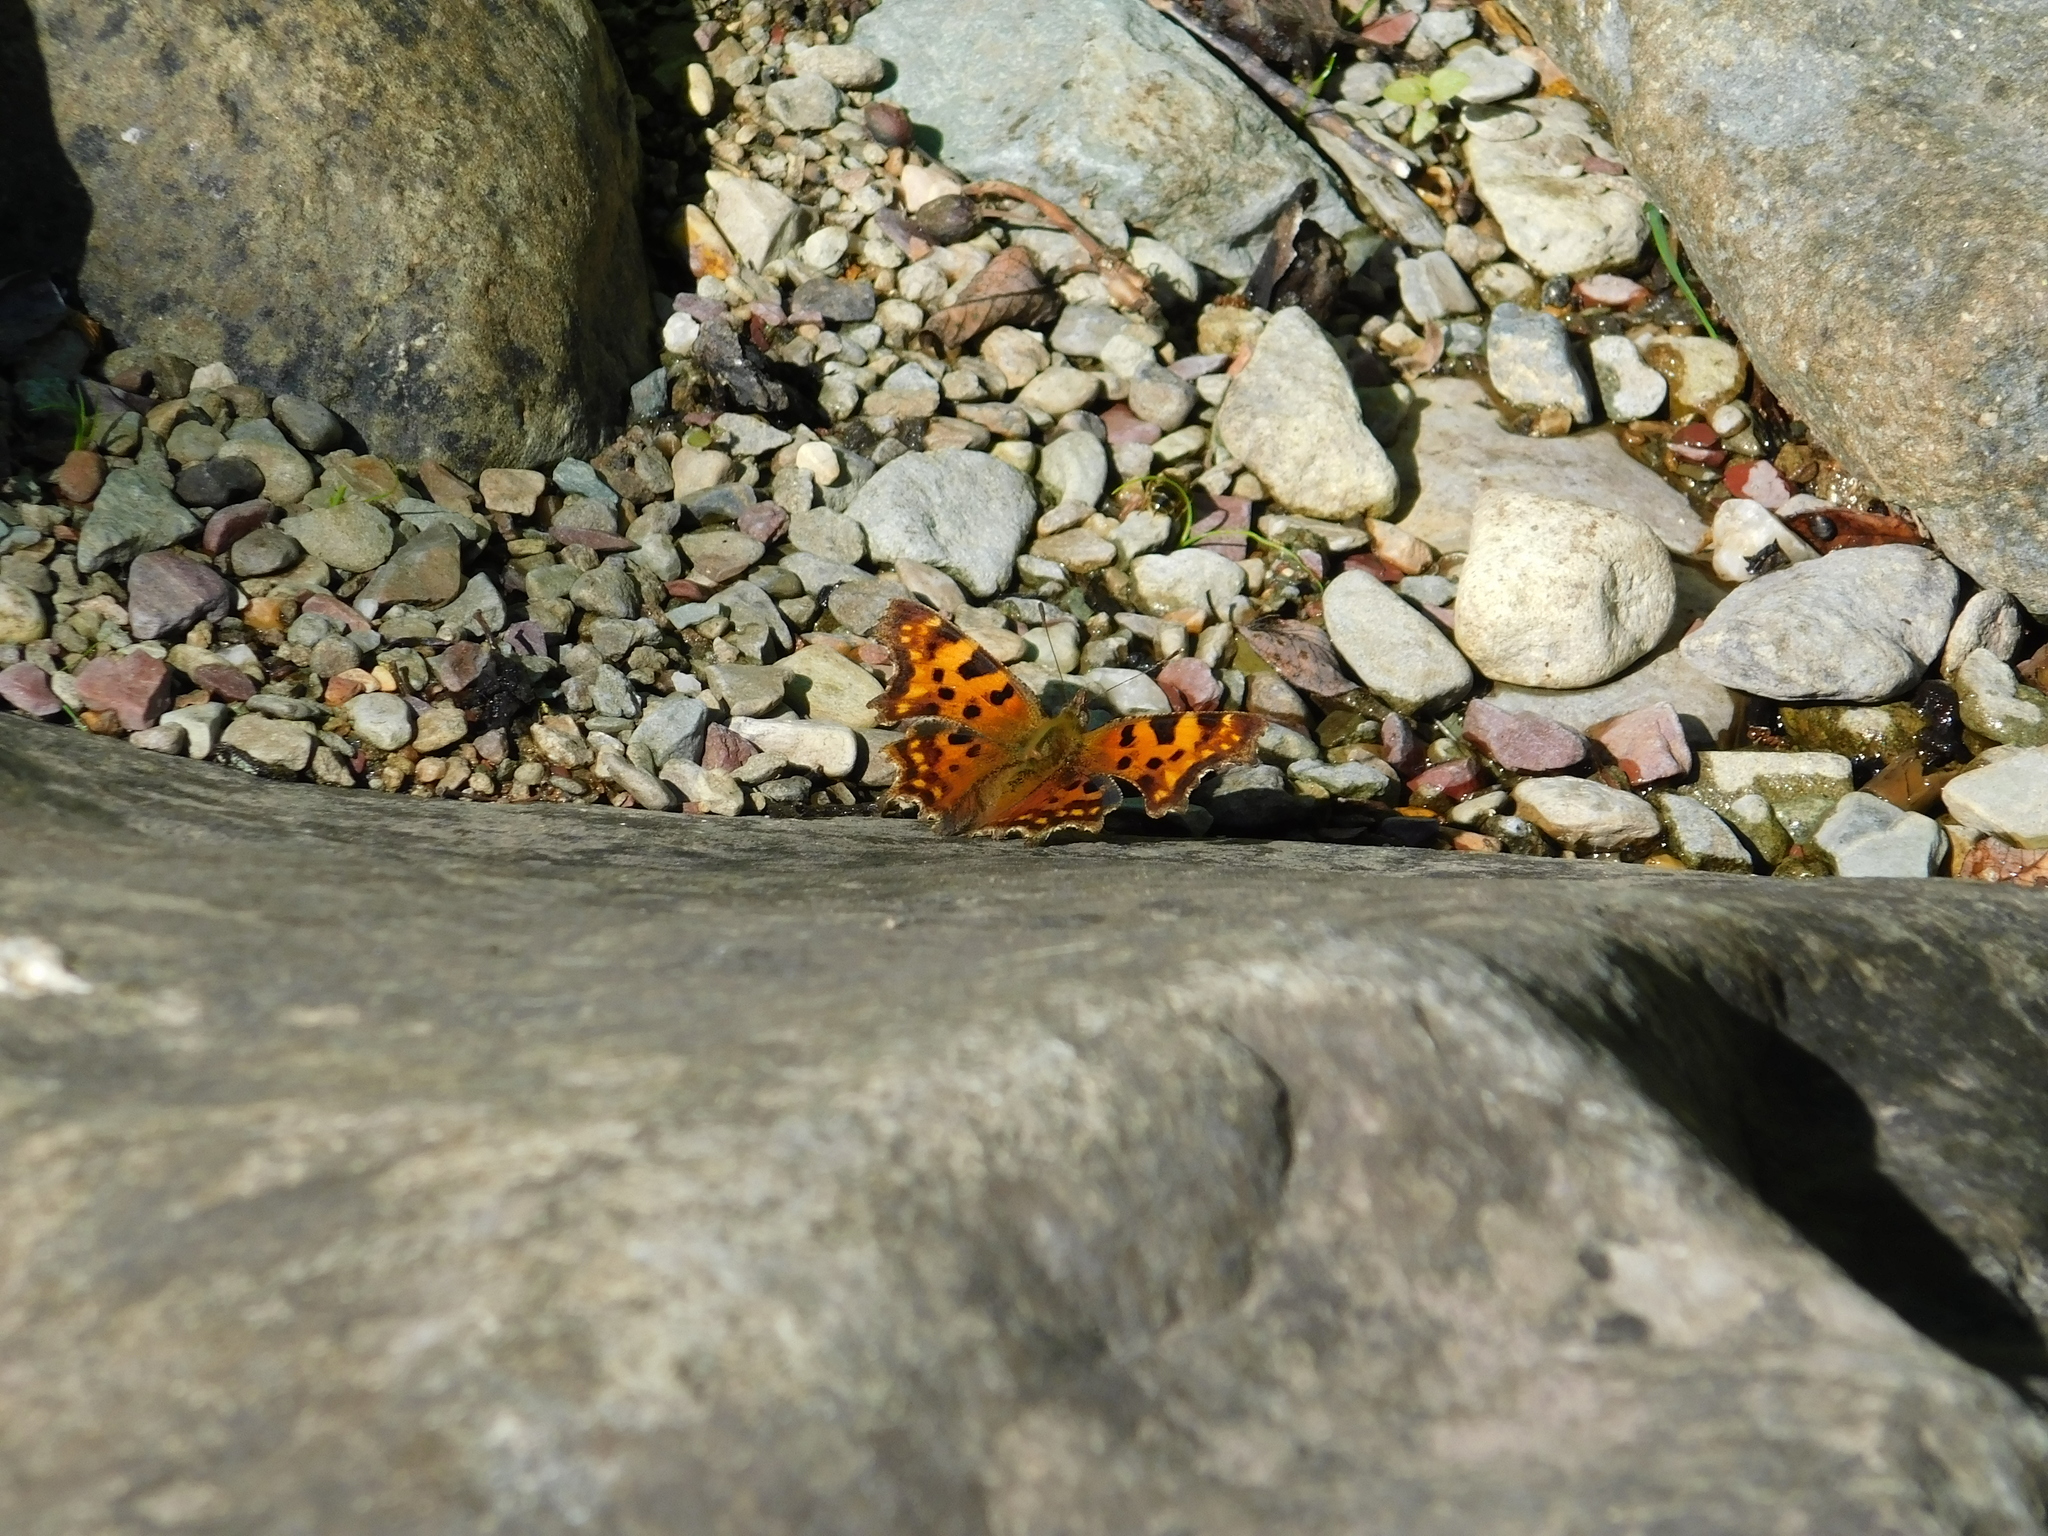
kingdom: Animalia
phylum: Arthropoda
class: Insecta
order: Lepidoptera
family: Nymphalidae
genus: Polygonia
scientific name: Polygonia c-album
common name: Comma
